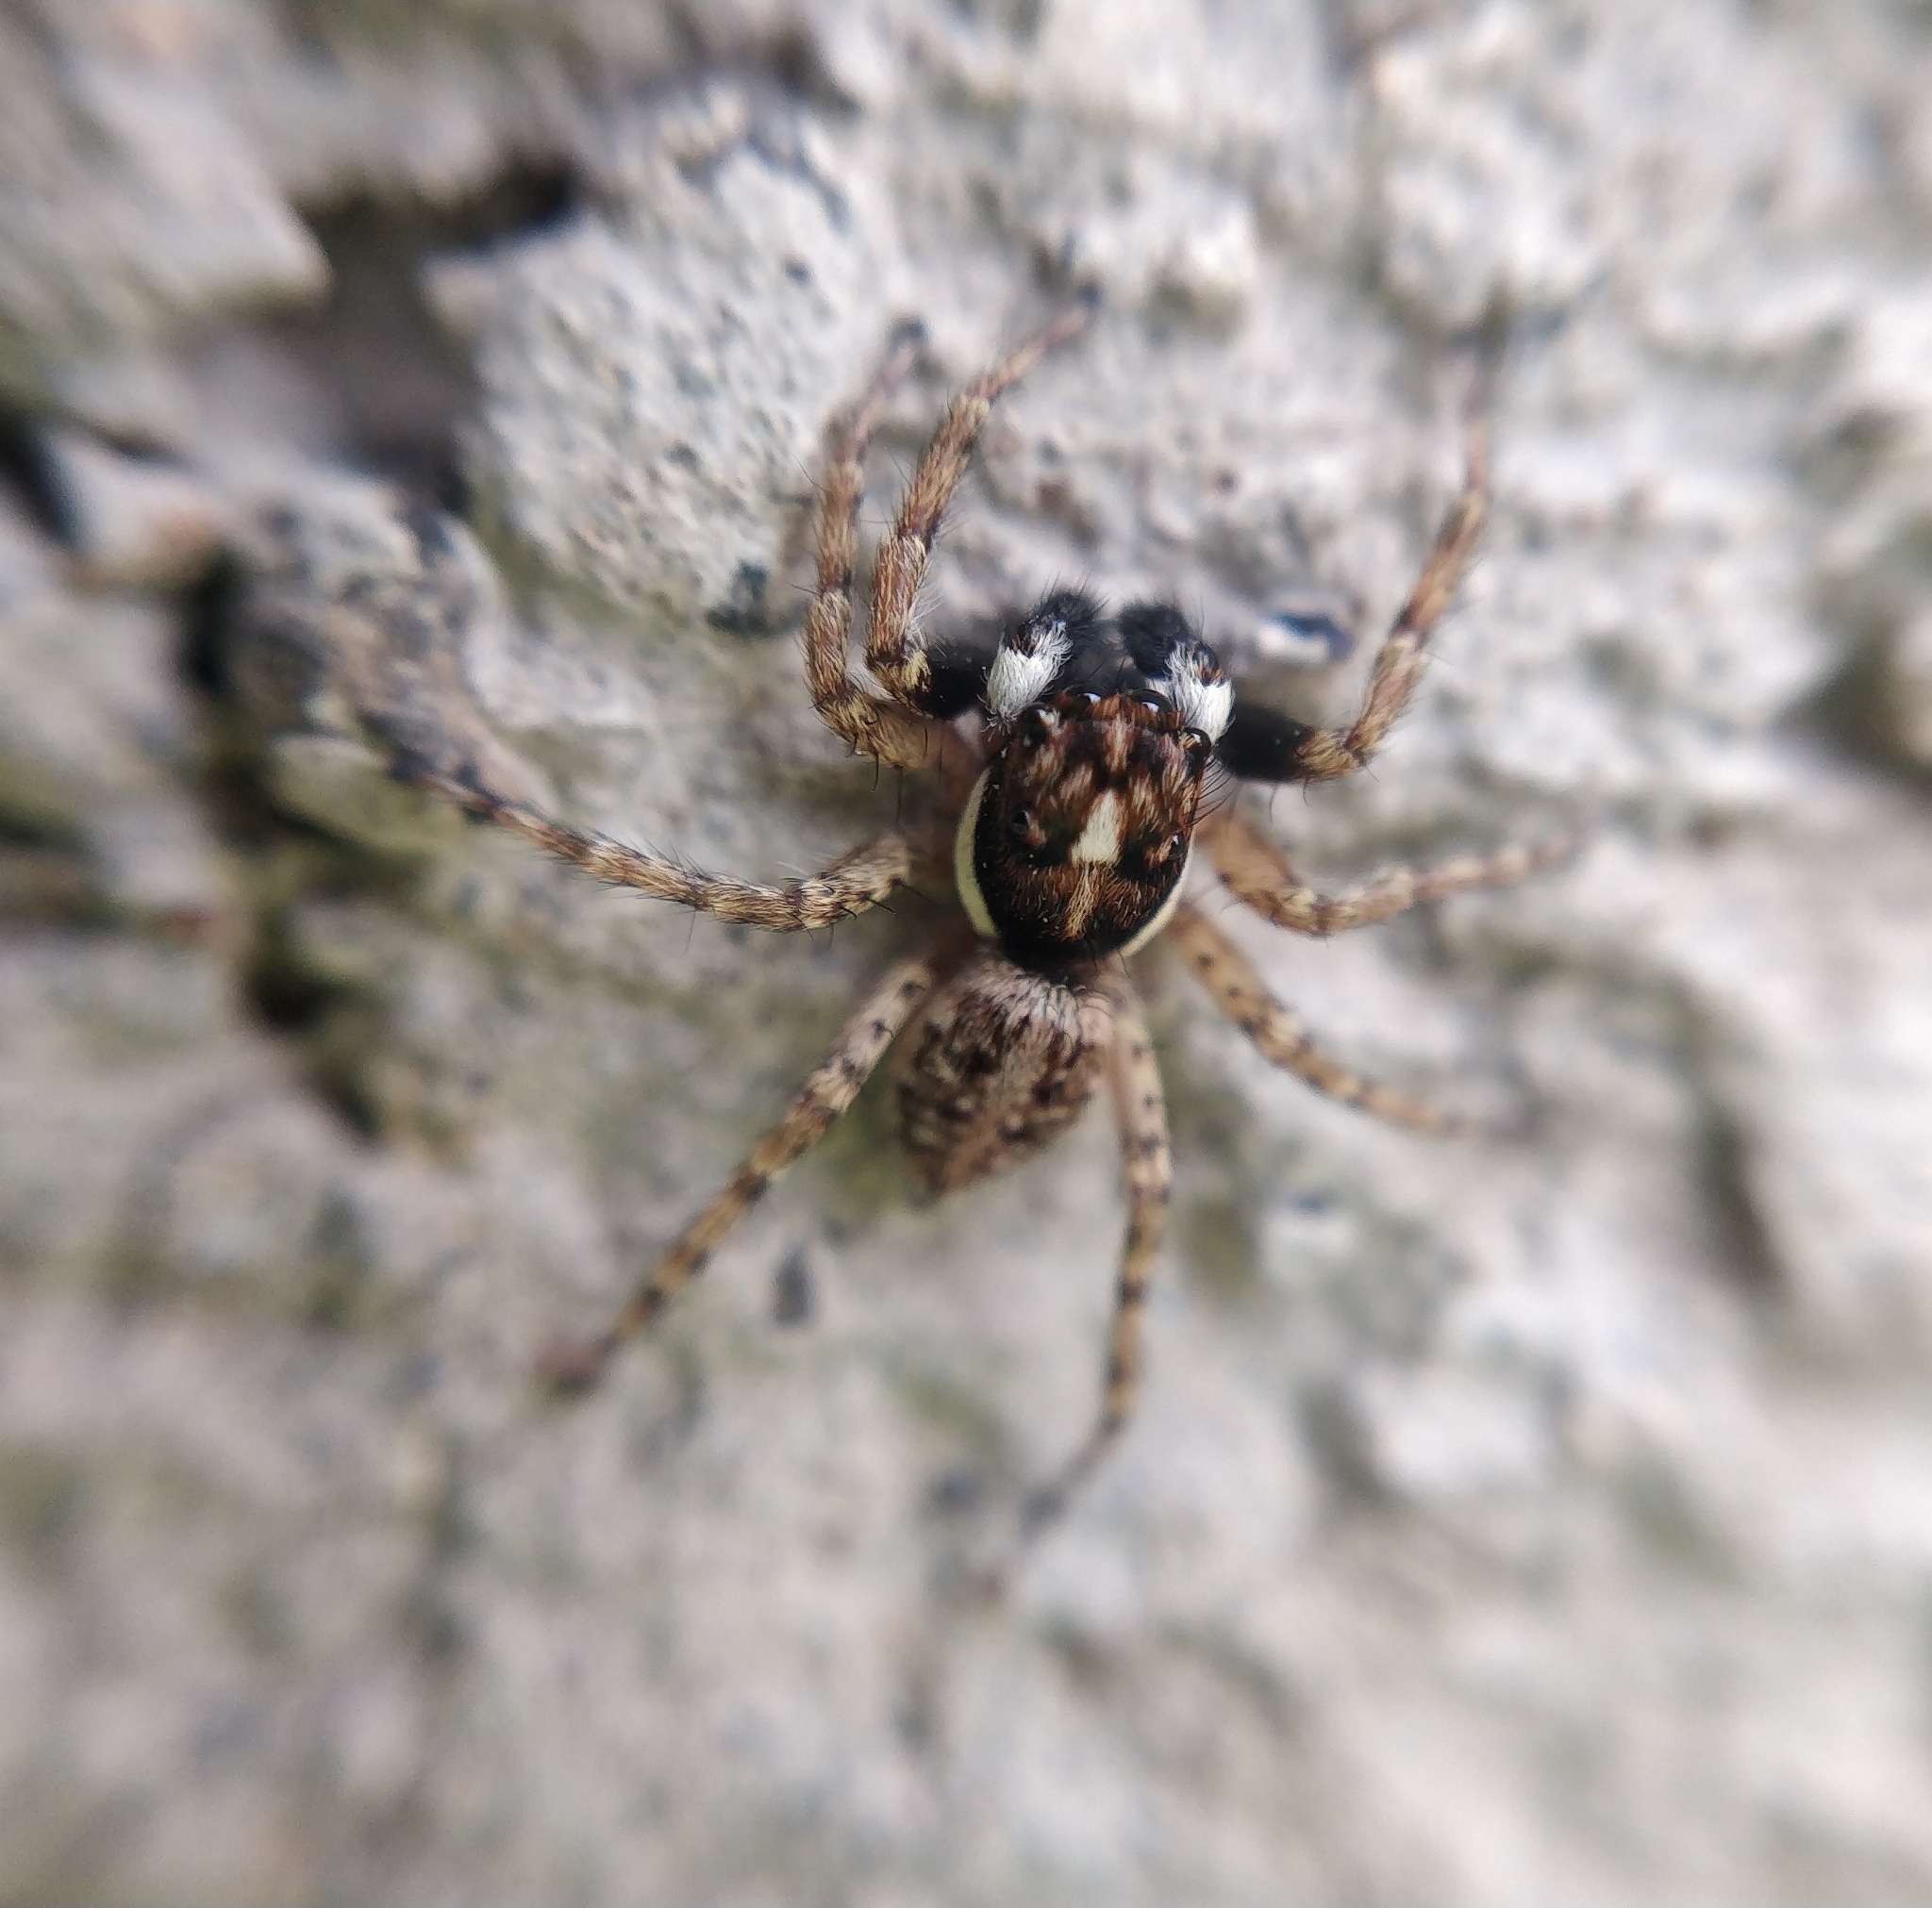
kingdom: Animalia
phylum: Arthropoda
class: Arachnida
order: Araneae
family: Salticidae
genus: Menemerus
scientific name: Menemerus semilimbatus
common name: Jumping spider
